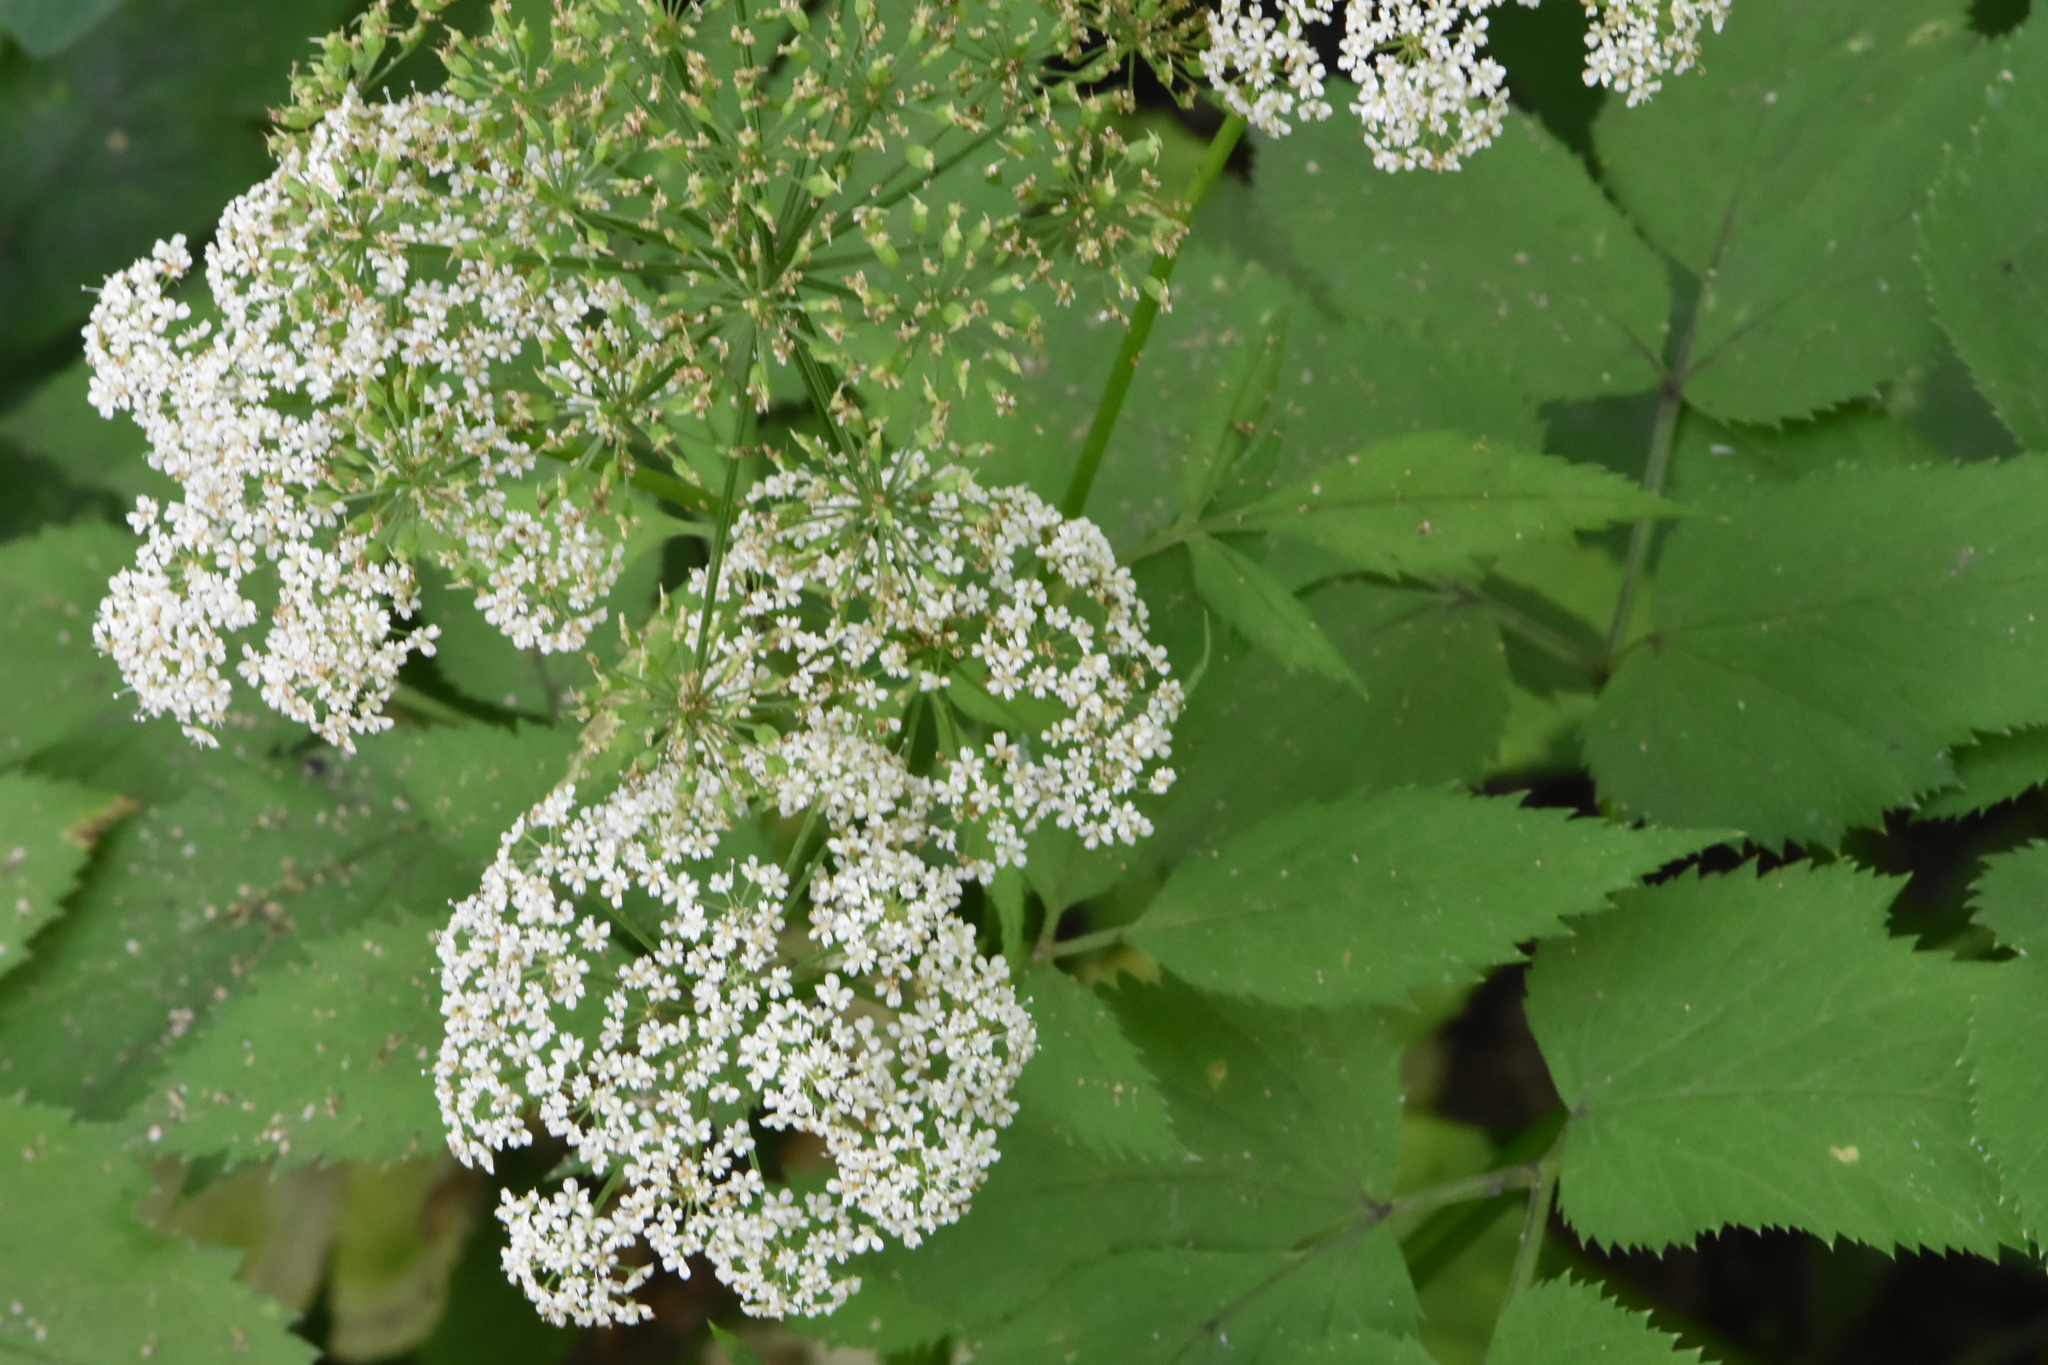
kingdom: Plantae
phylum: Tracheophyta
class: Magnoliopsida
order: Apiales
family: Apiaceae
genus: Aegopodium
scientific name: Aegopodium podagraria
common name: Ground-elder
